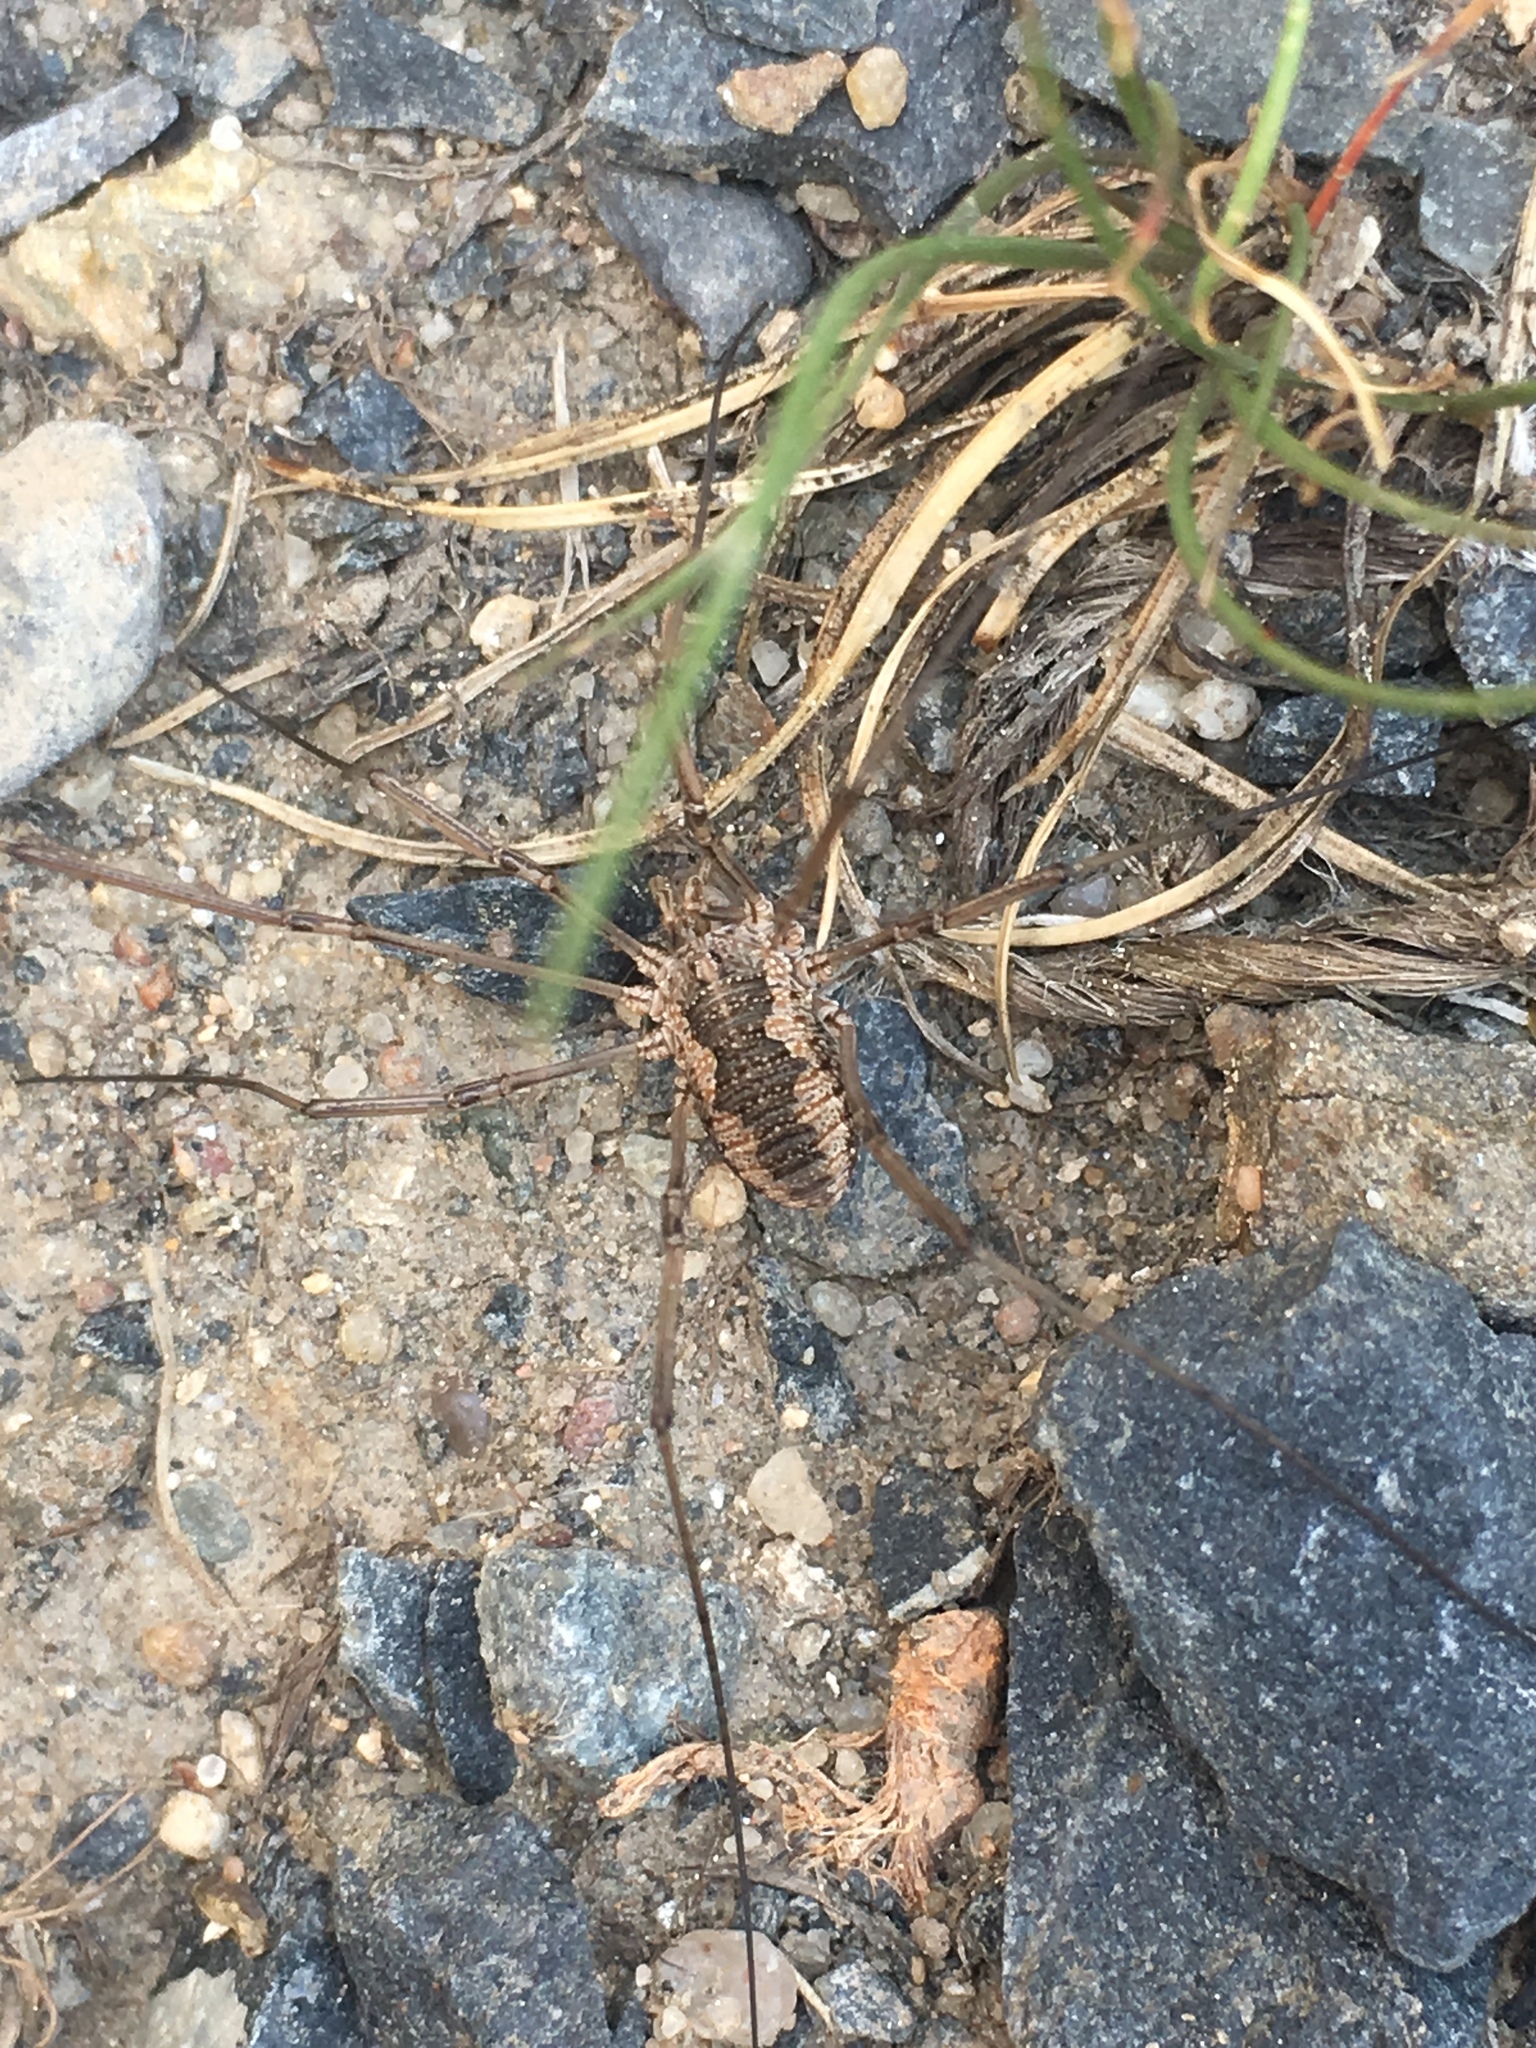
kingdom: Animalia
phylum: Arthropoda
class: Arachnida
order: Opiliones
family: Phalangiidae
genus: Phalangium
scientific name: Phalangium opilio
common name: Daddy longleg
